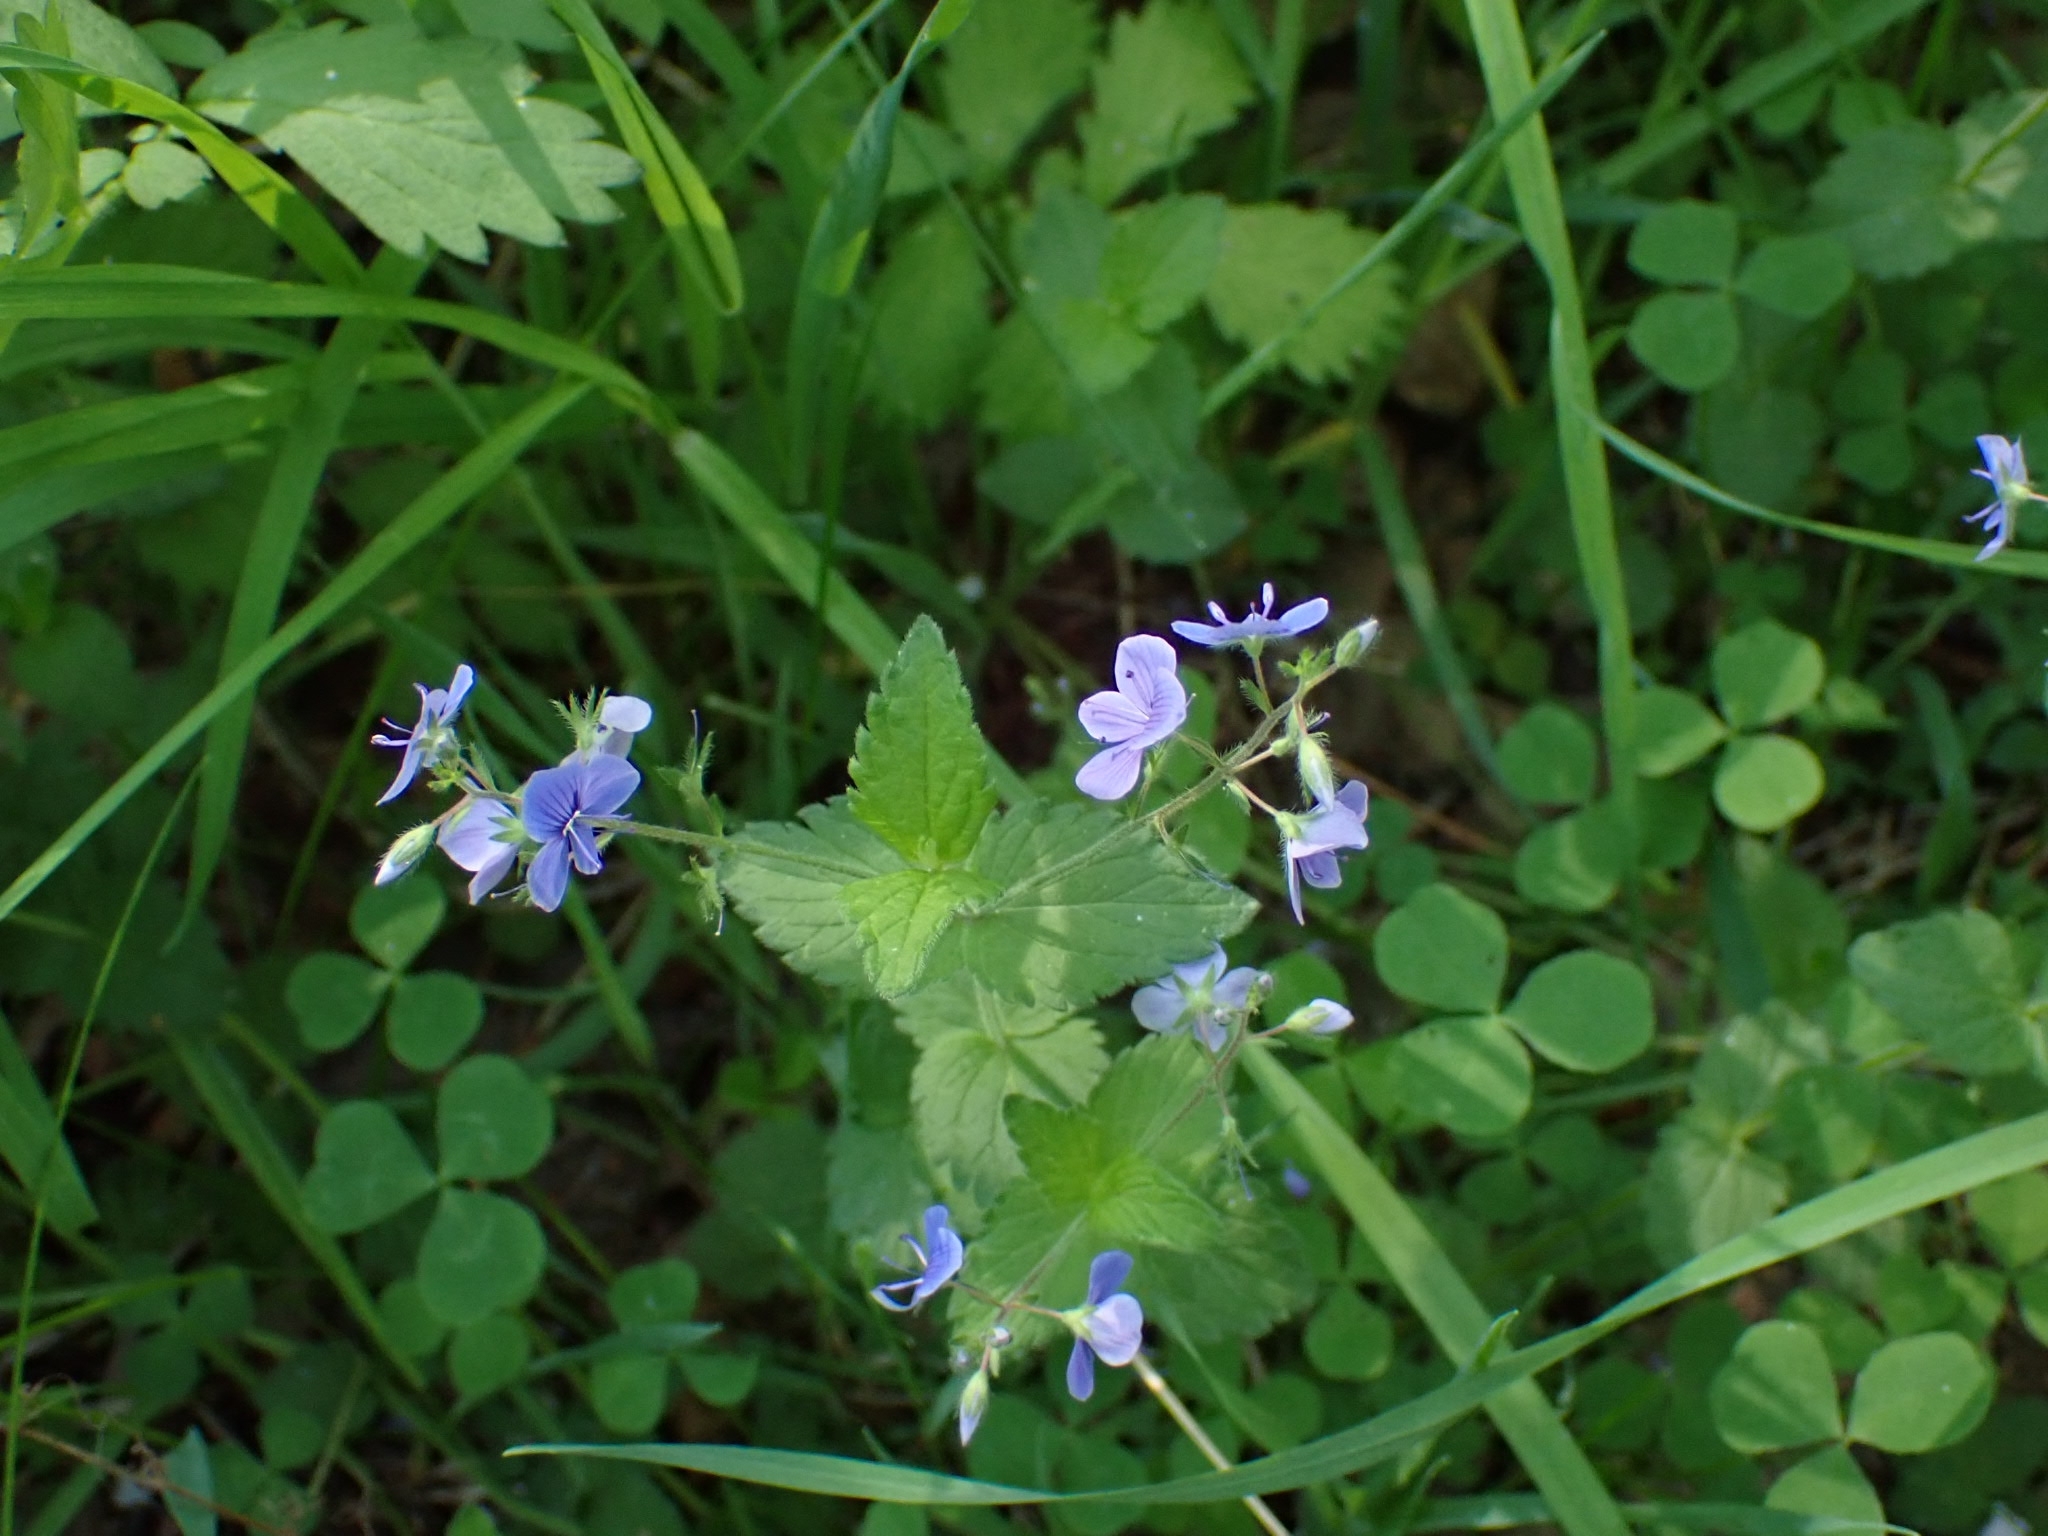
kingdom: Plantae
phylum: Tracheophyta
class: Magnoliopsida
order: Lamiales
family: Plantaginaceae
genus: Veronica
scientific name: Veronica chamaedrys
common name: Germander speedwell
